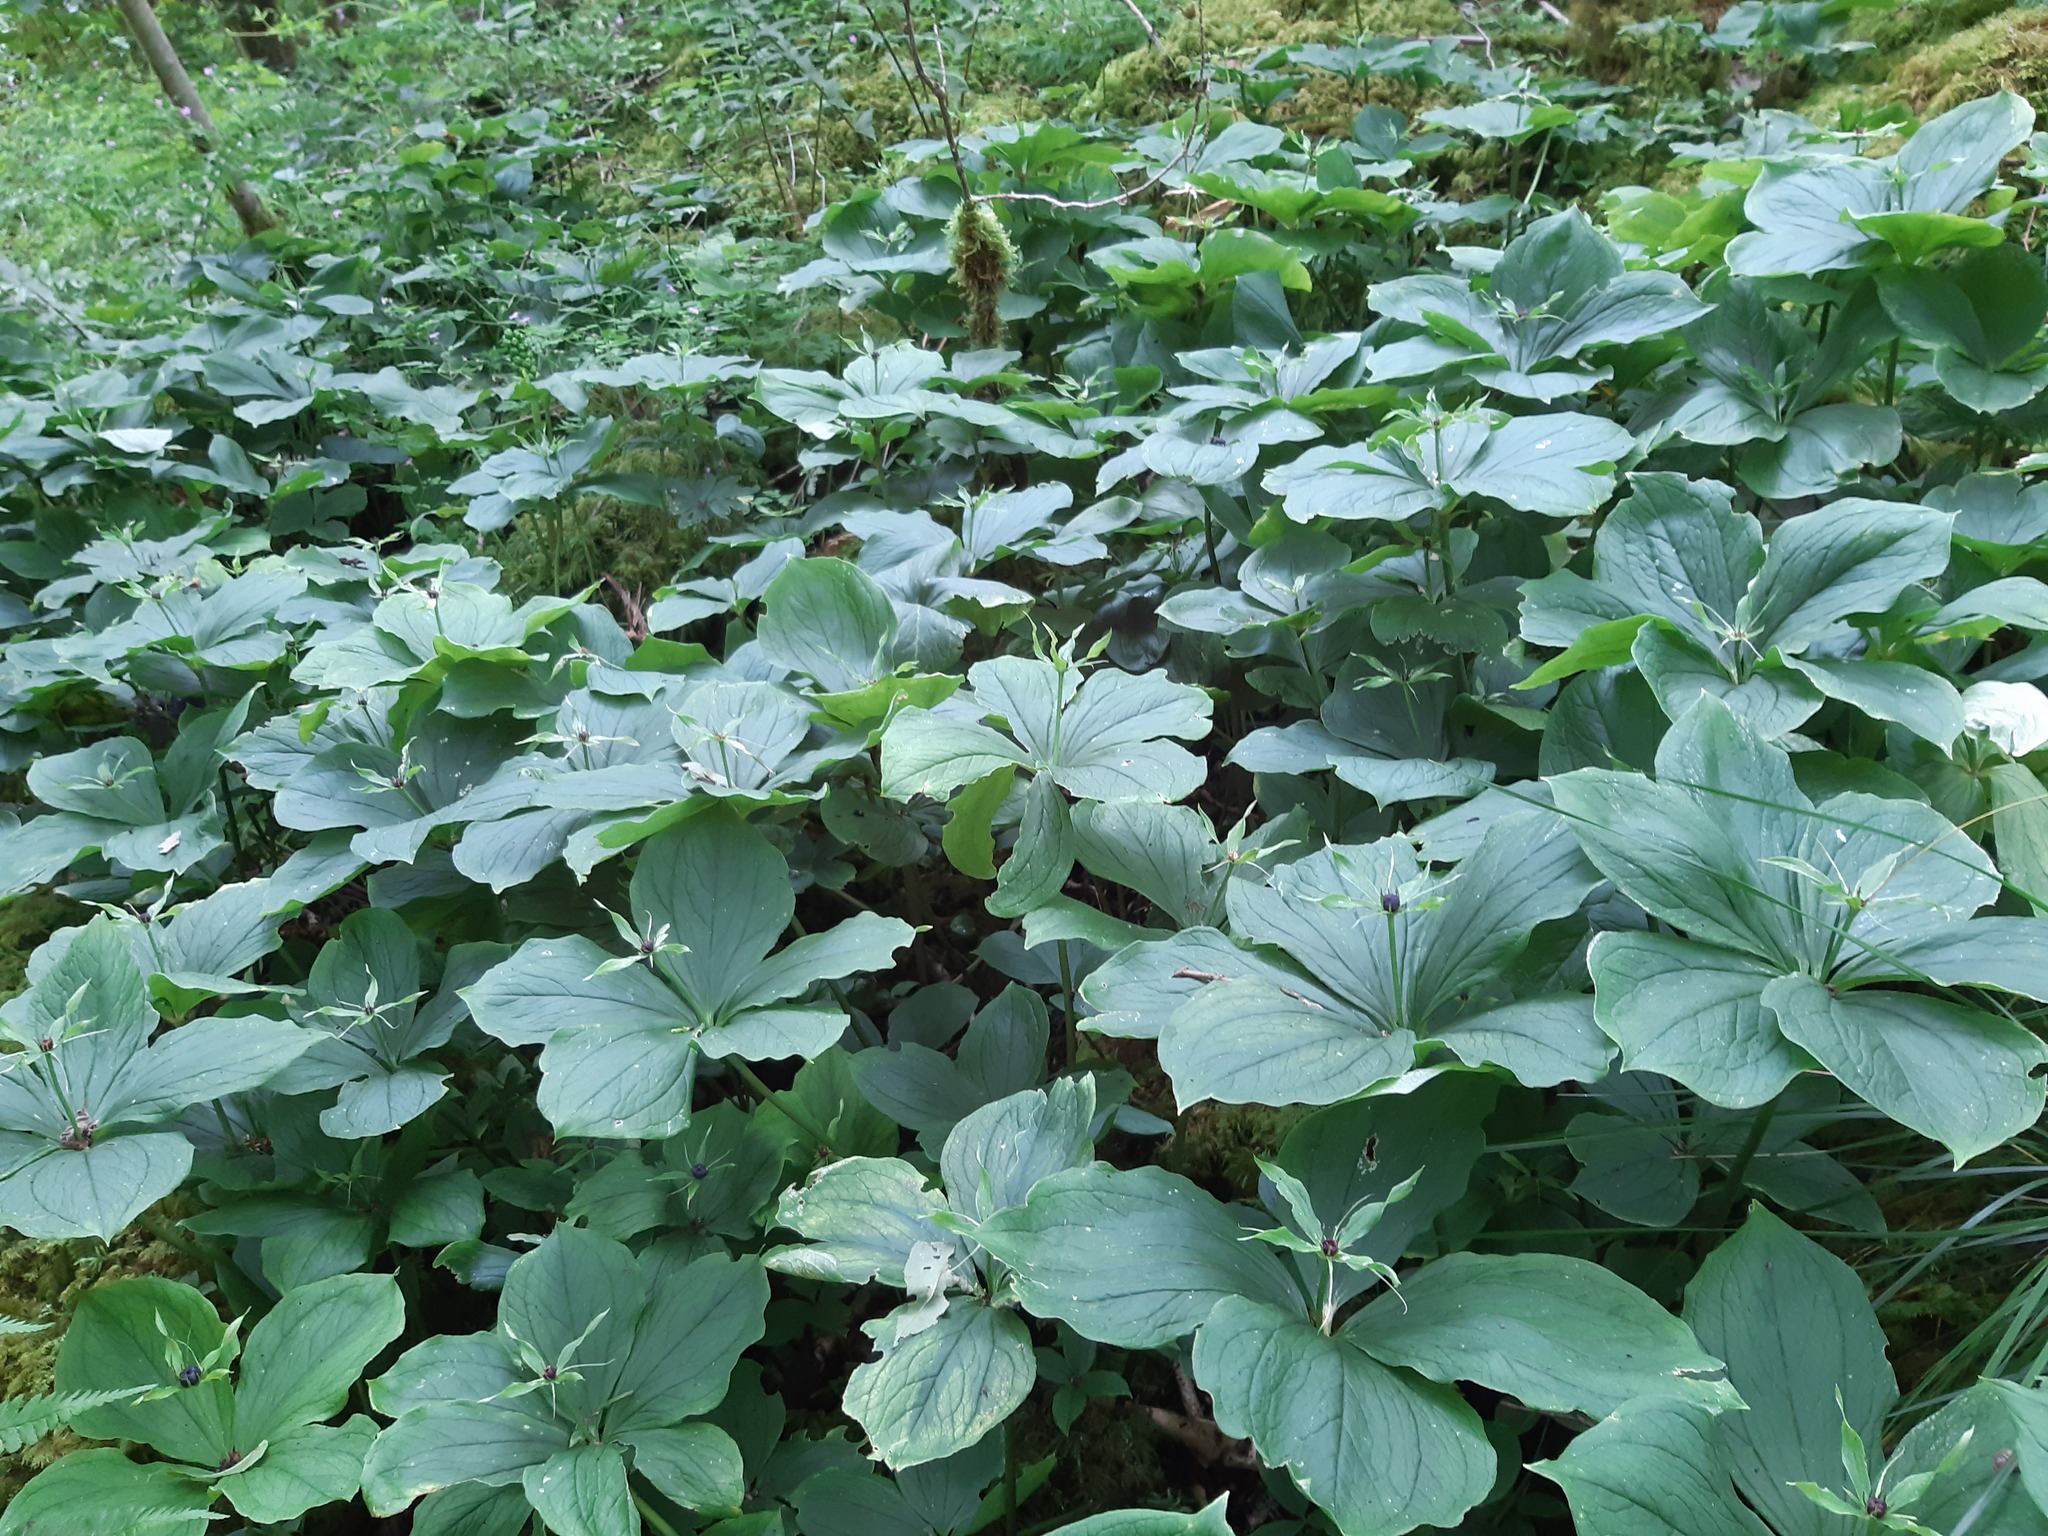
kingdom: Plantae
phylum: Tracheophyta
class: Liliopsida
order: Liliales
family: Melanthiaceae
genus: Paris
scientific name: Paris quadrifolia
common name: Herb-paris
